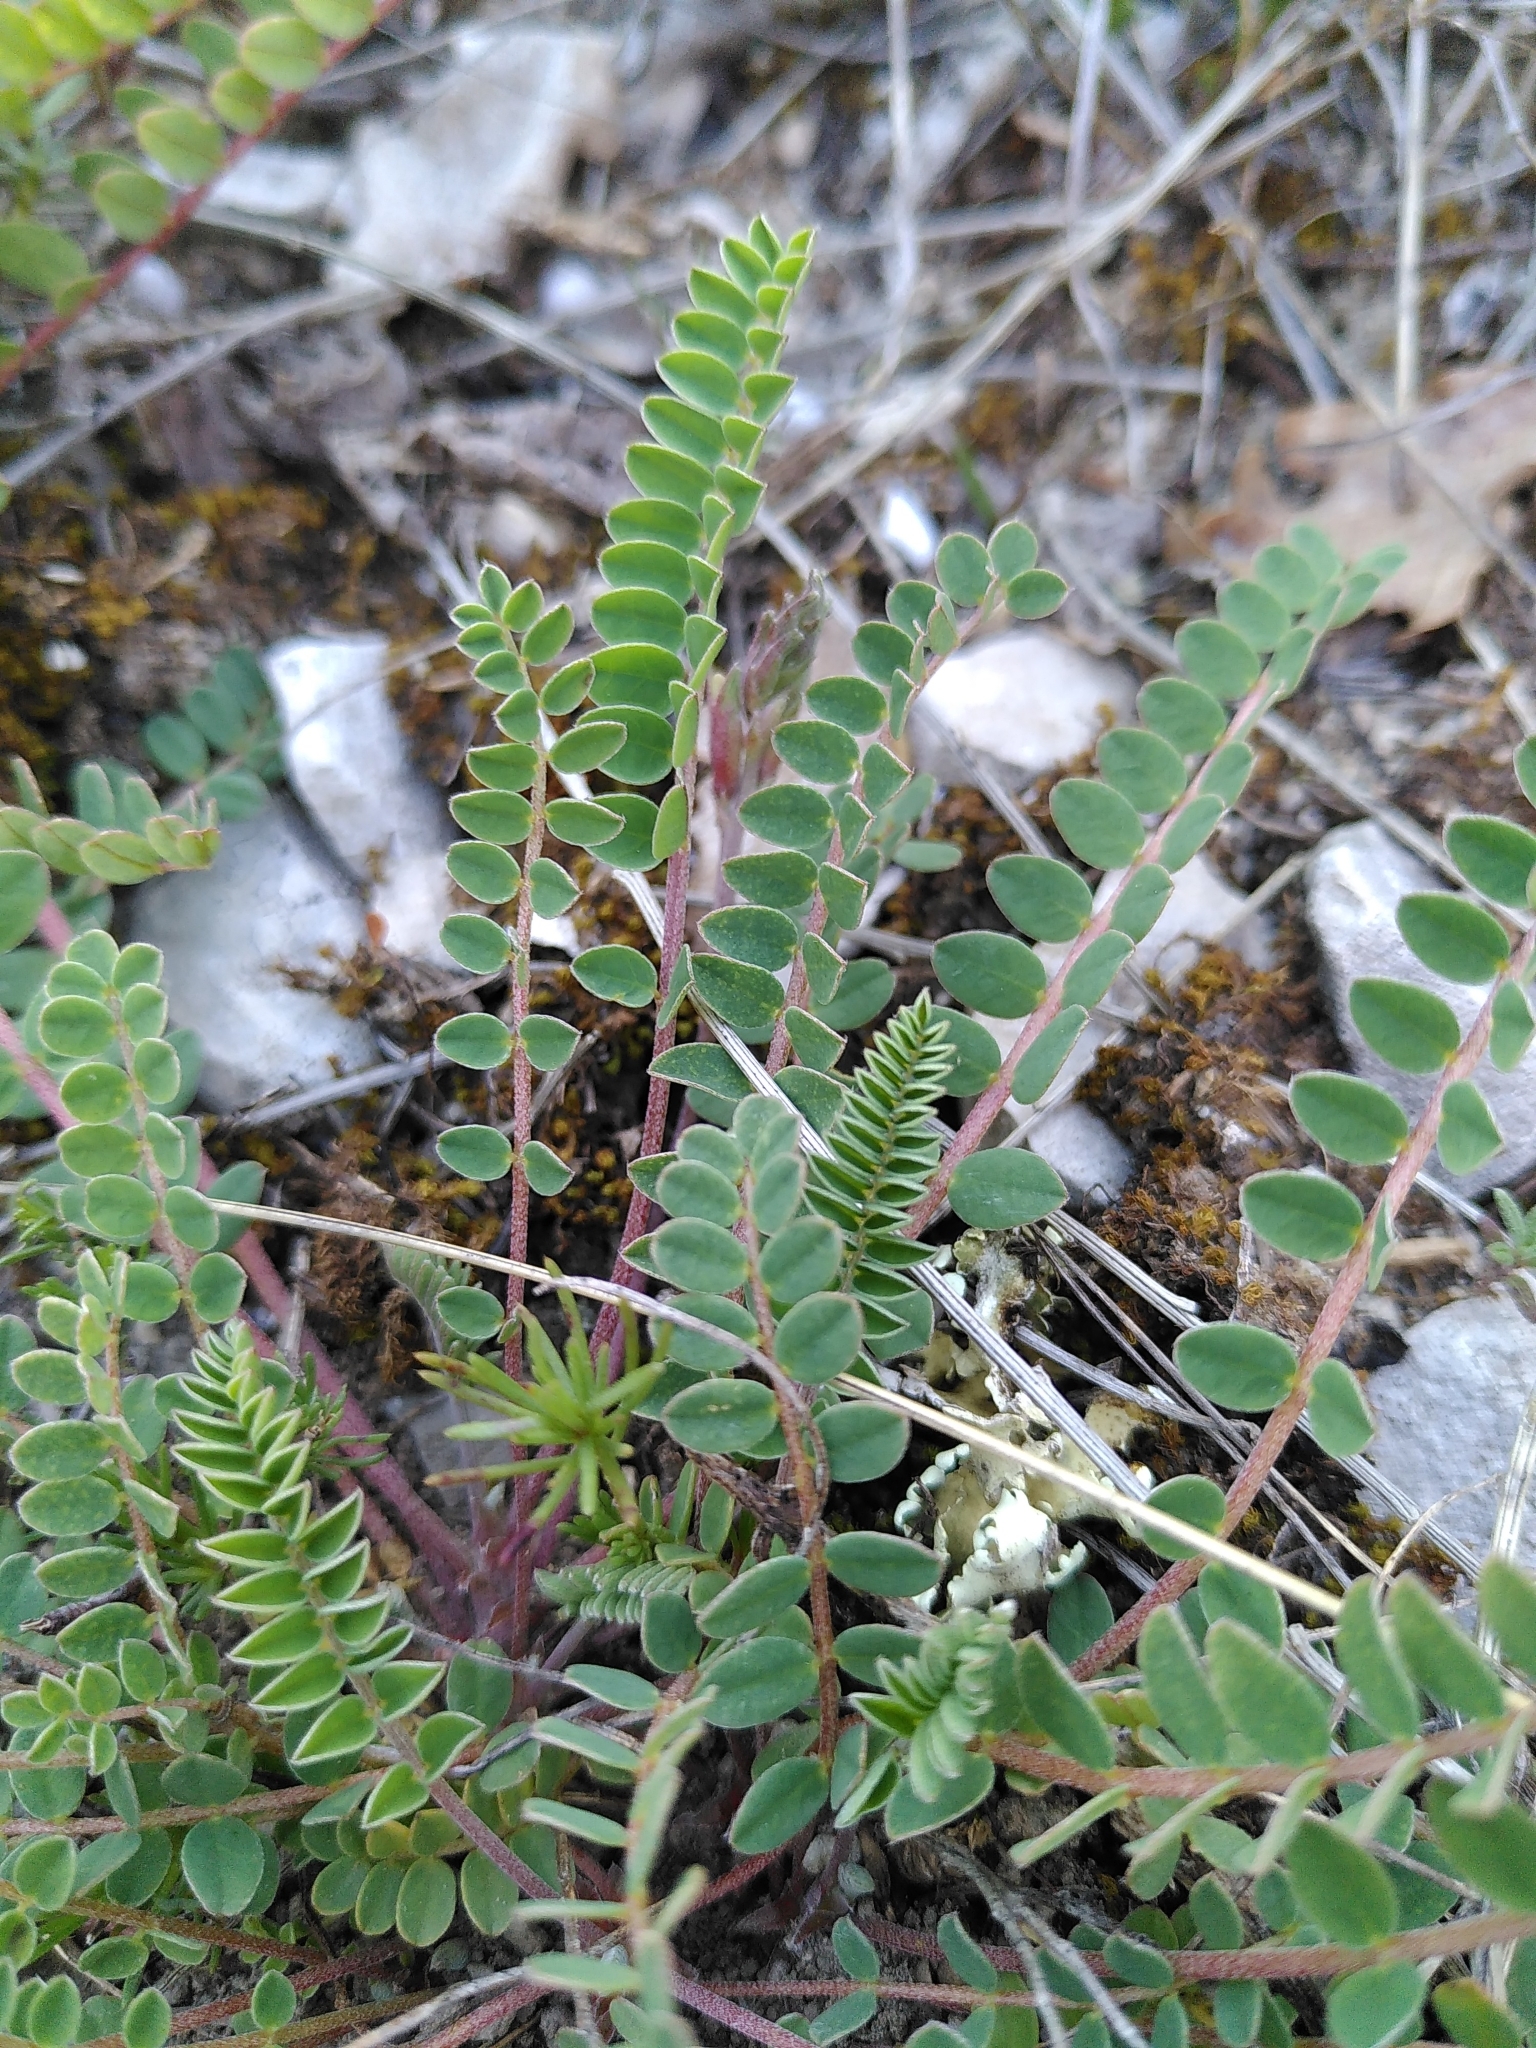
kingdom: Plantae
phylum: Tracheophyta
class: Magnoliopsida
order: Fabales
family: Fabaceae
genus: Astragalus
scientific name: Astragalus monspessulanus
